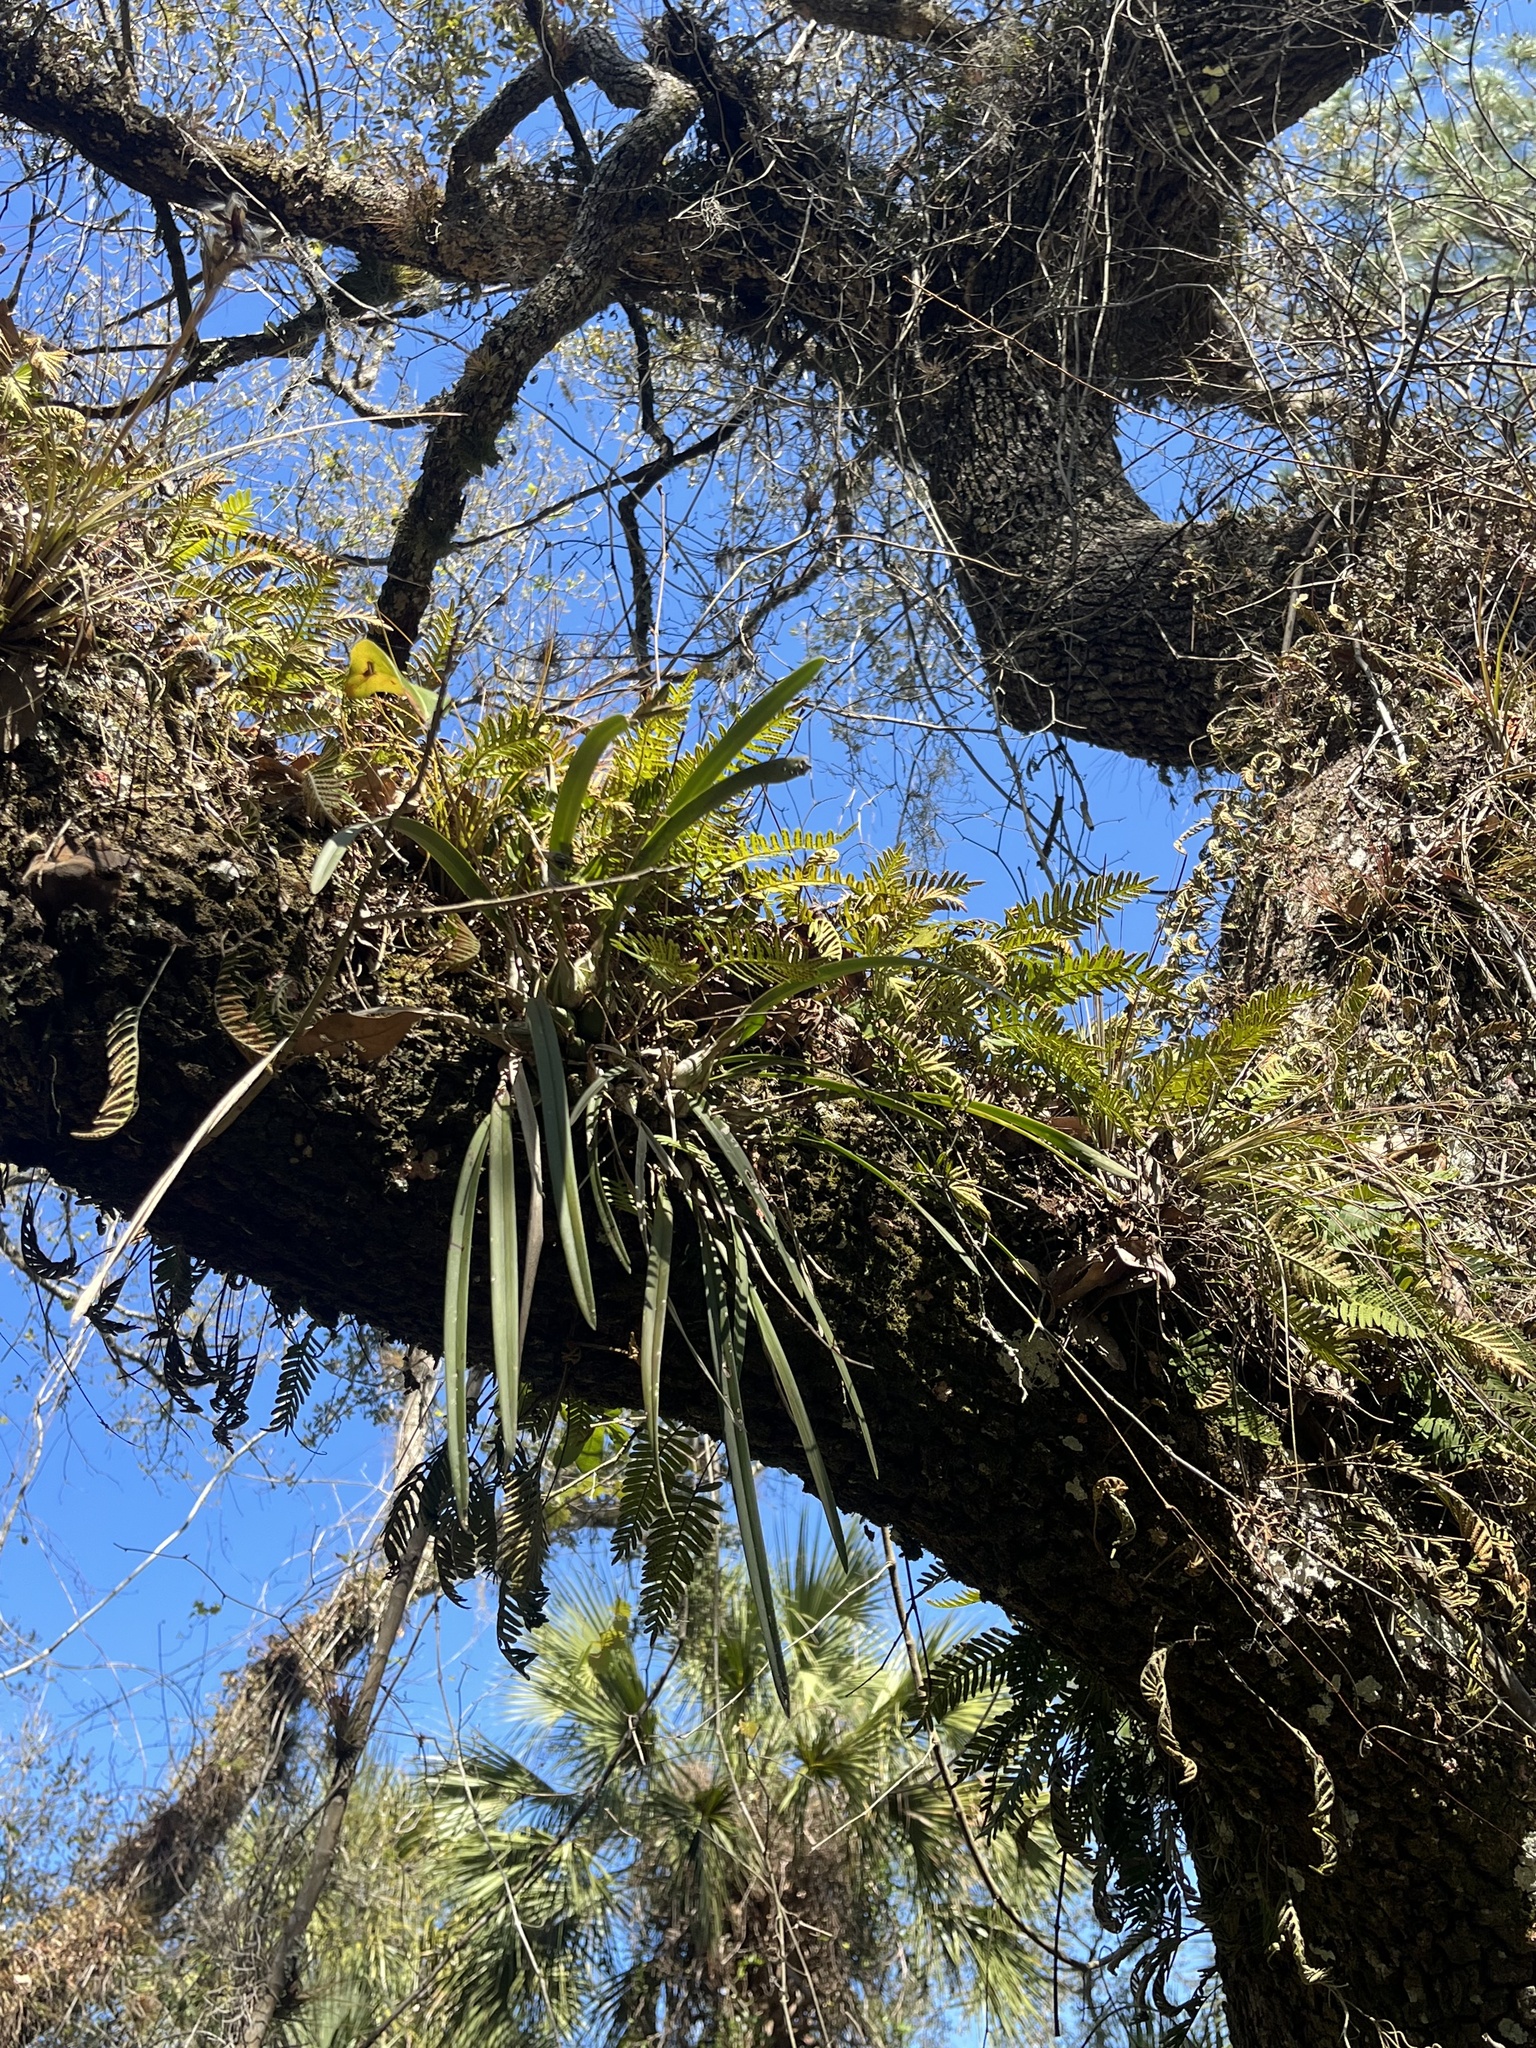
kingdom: Plantae
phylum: Tracheophyta
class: Liliopsida
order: Asparagales
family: Orchidaceae
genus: Encyclia
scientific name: Encyclia tampensis
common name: Florida butterfly orchid
